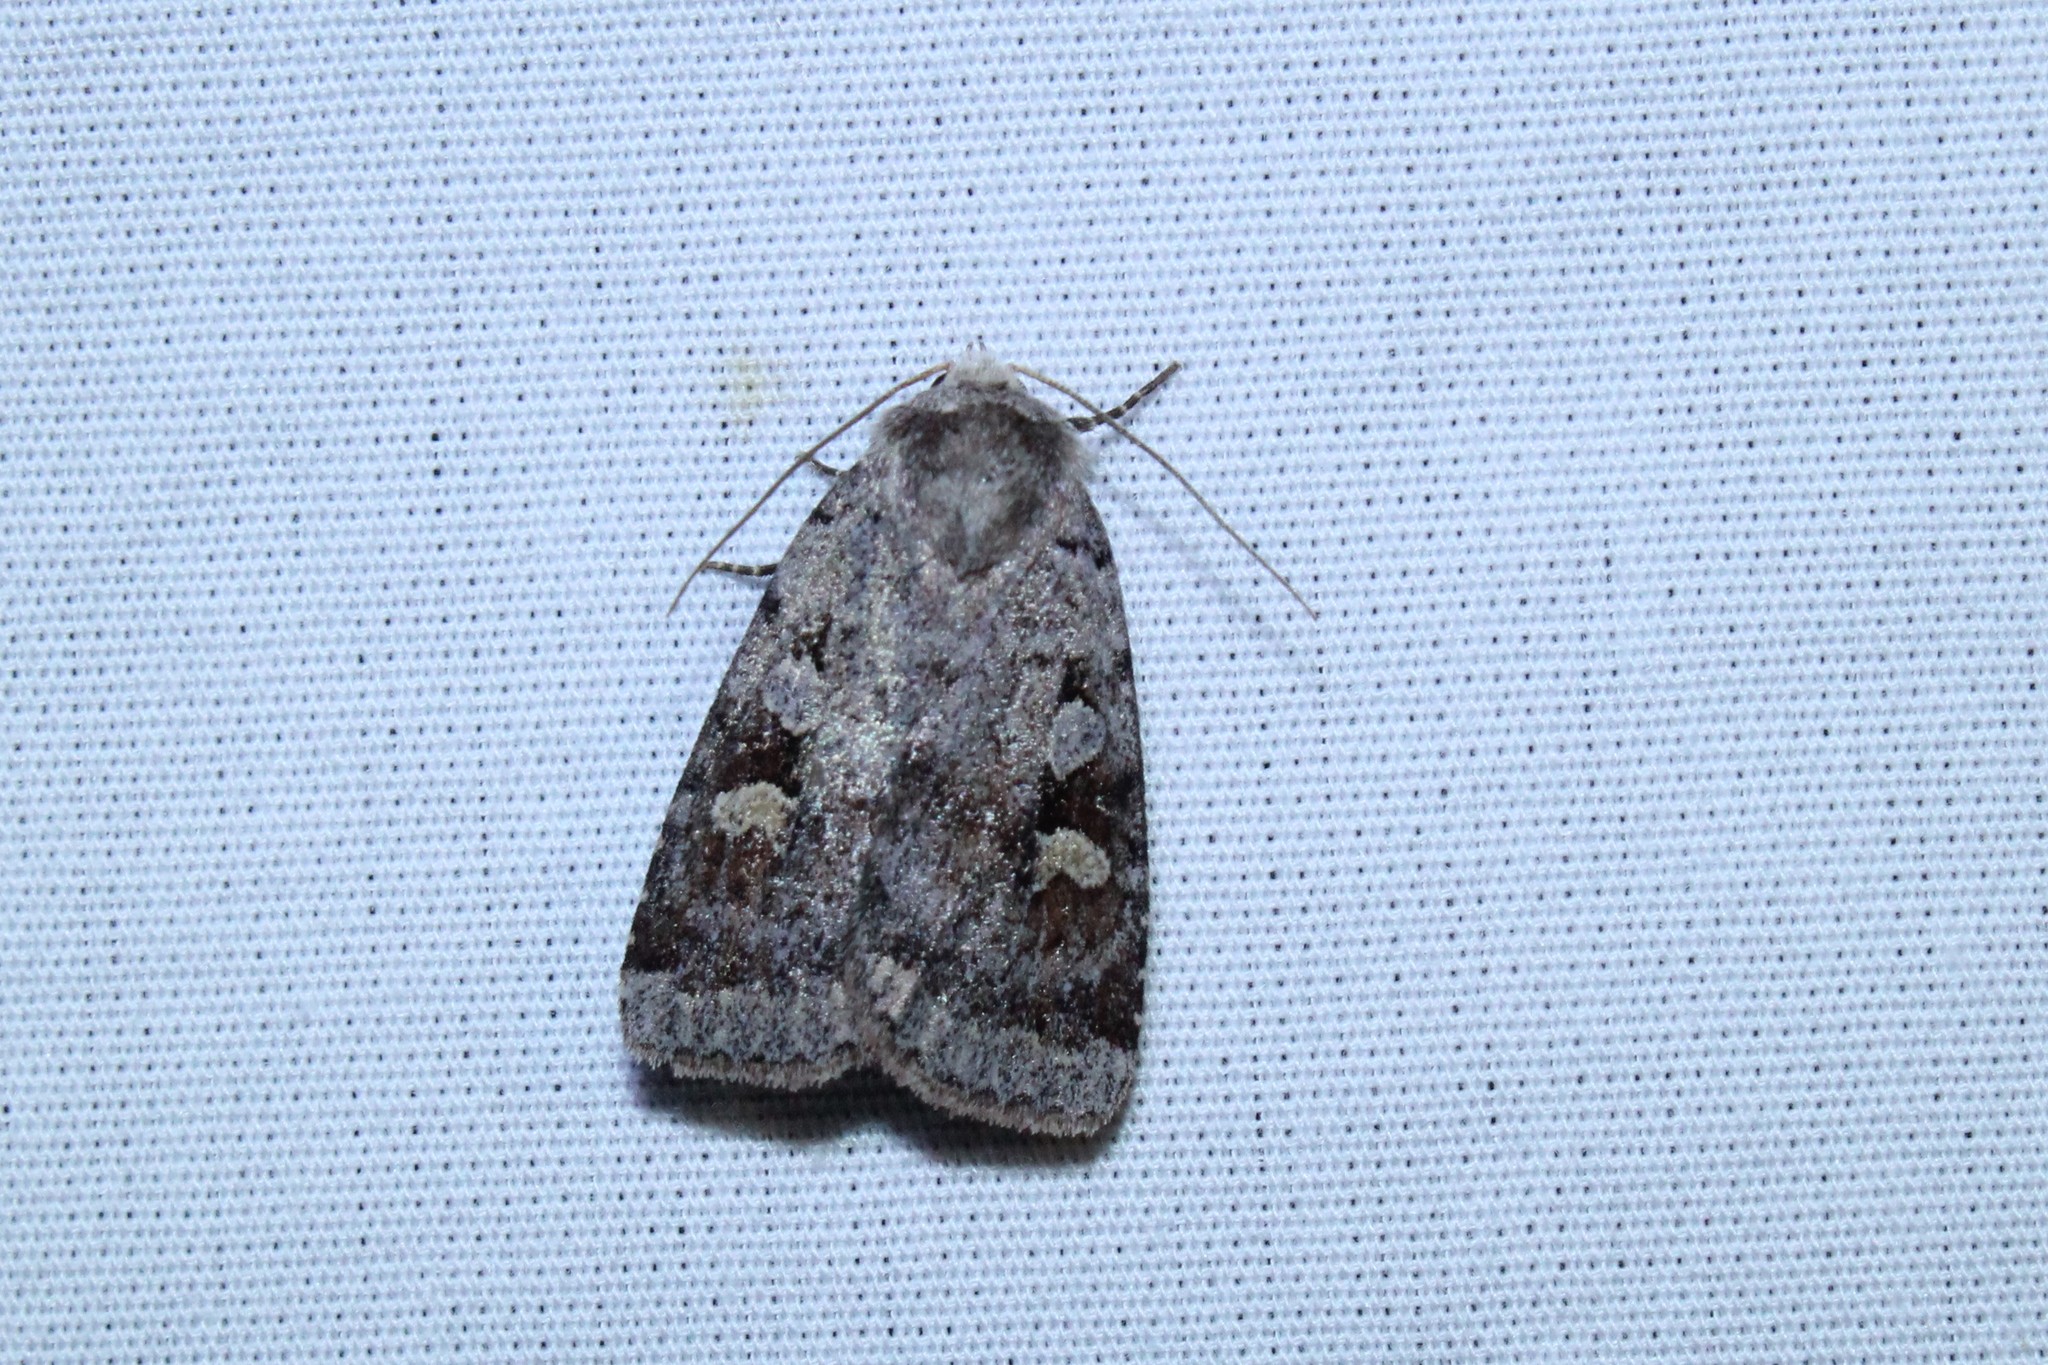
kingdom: Animalia
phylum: Arthropoda
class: Insecta
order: Lepidoptera
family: Noctuidae
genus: Diarsia
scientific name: Diarsia jucunda
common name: Smaller pinkish dart
